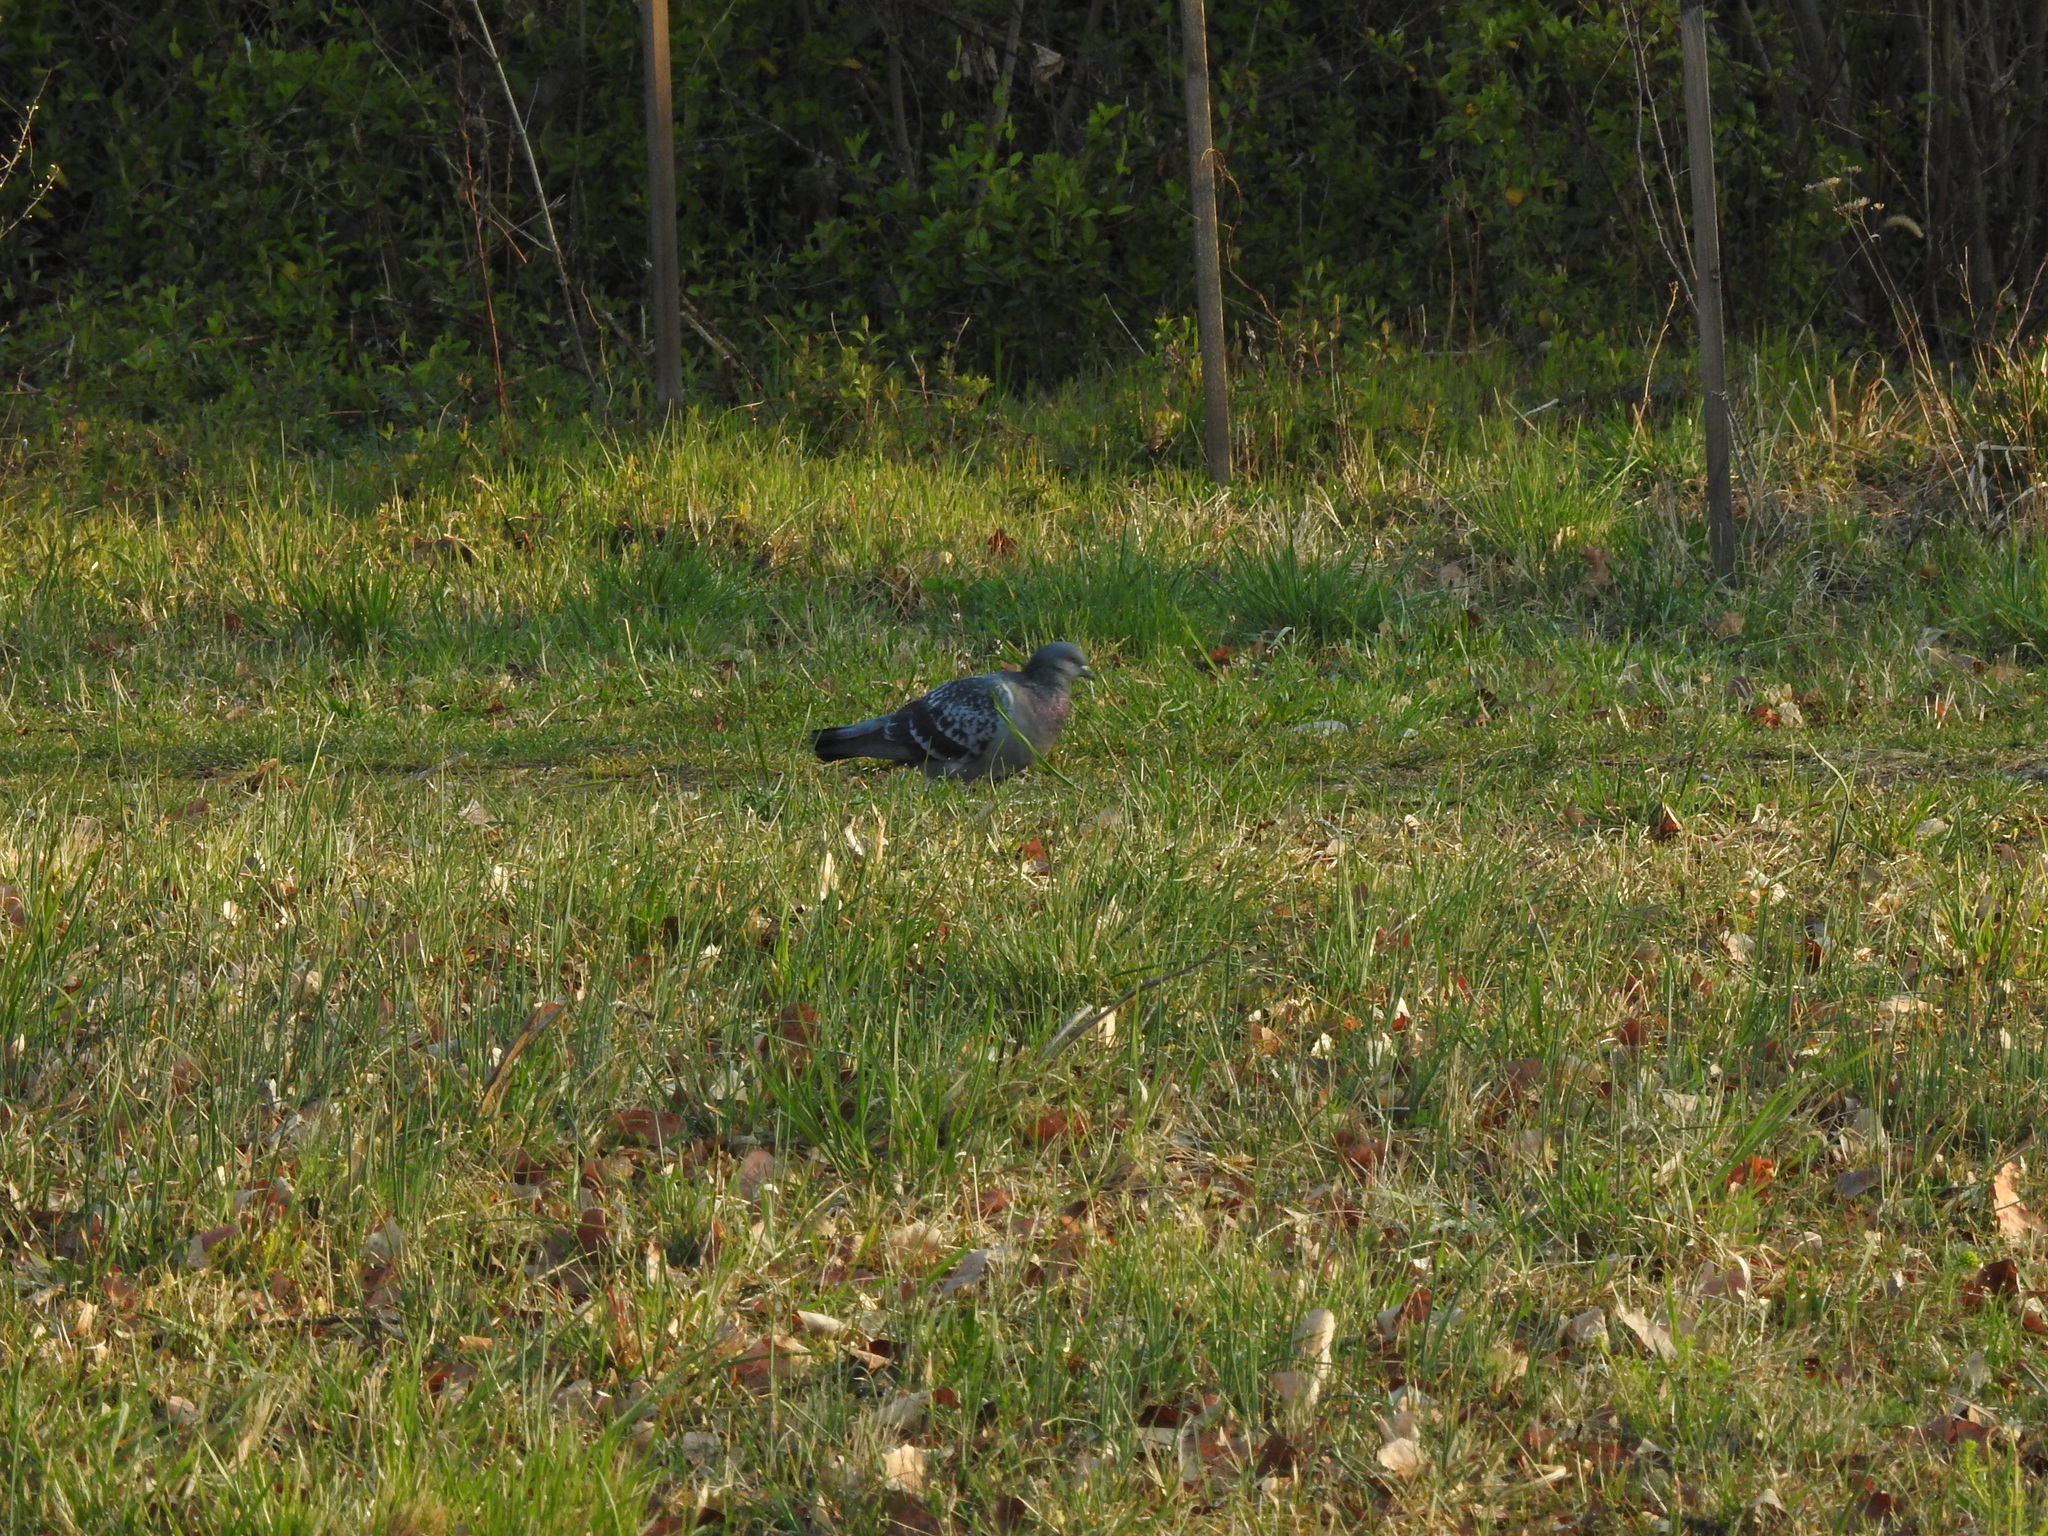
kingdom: Animalia
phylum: Chordata
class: Aves
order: Columbiformes
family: Columbidae
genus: Columba
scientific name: Columba livia
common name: Rock pigeon
